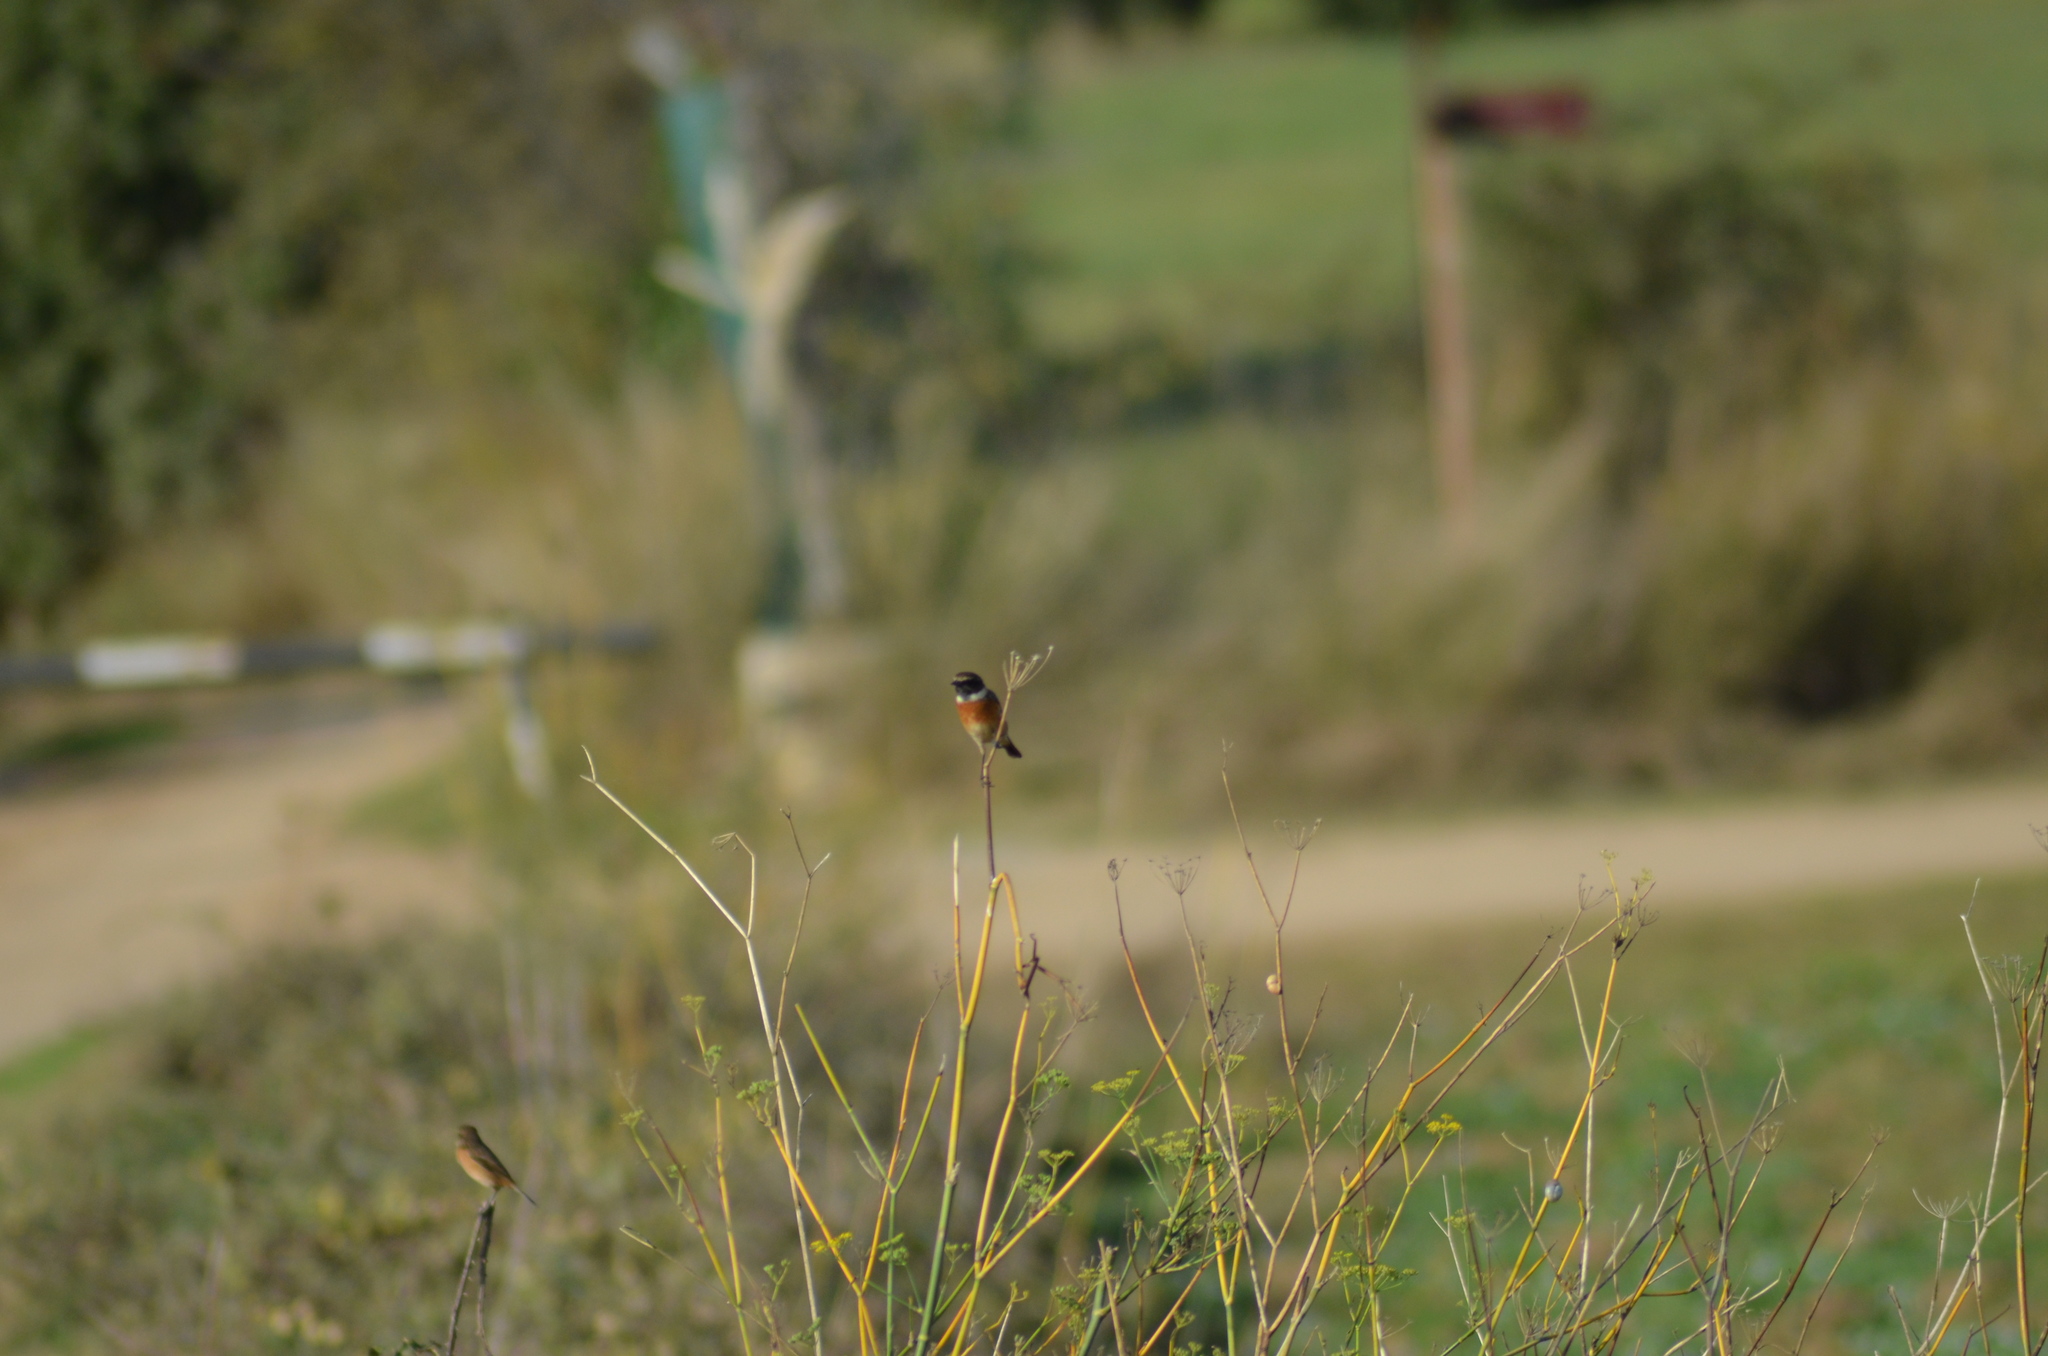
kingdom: Animalia
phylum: Chordata
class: Aves
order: Passeriformes
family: Muscicapidae
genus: Saxicola
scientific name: Saxicola rubicola
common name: European stonechat
